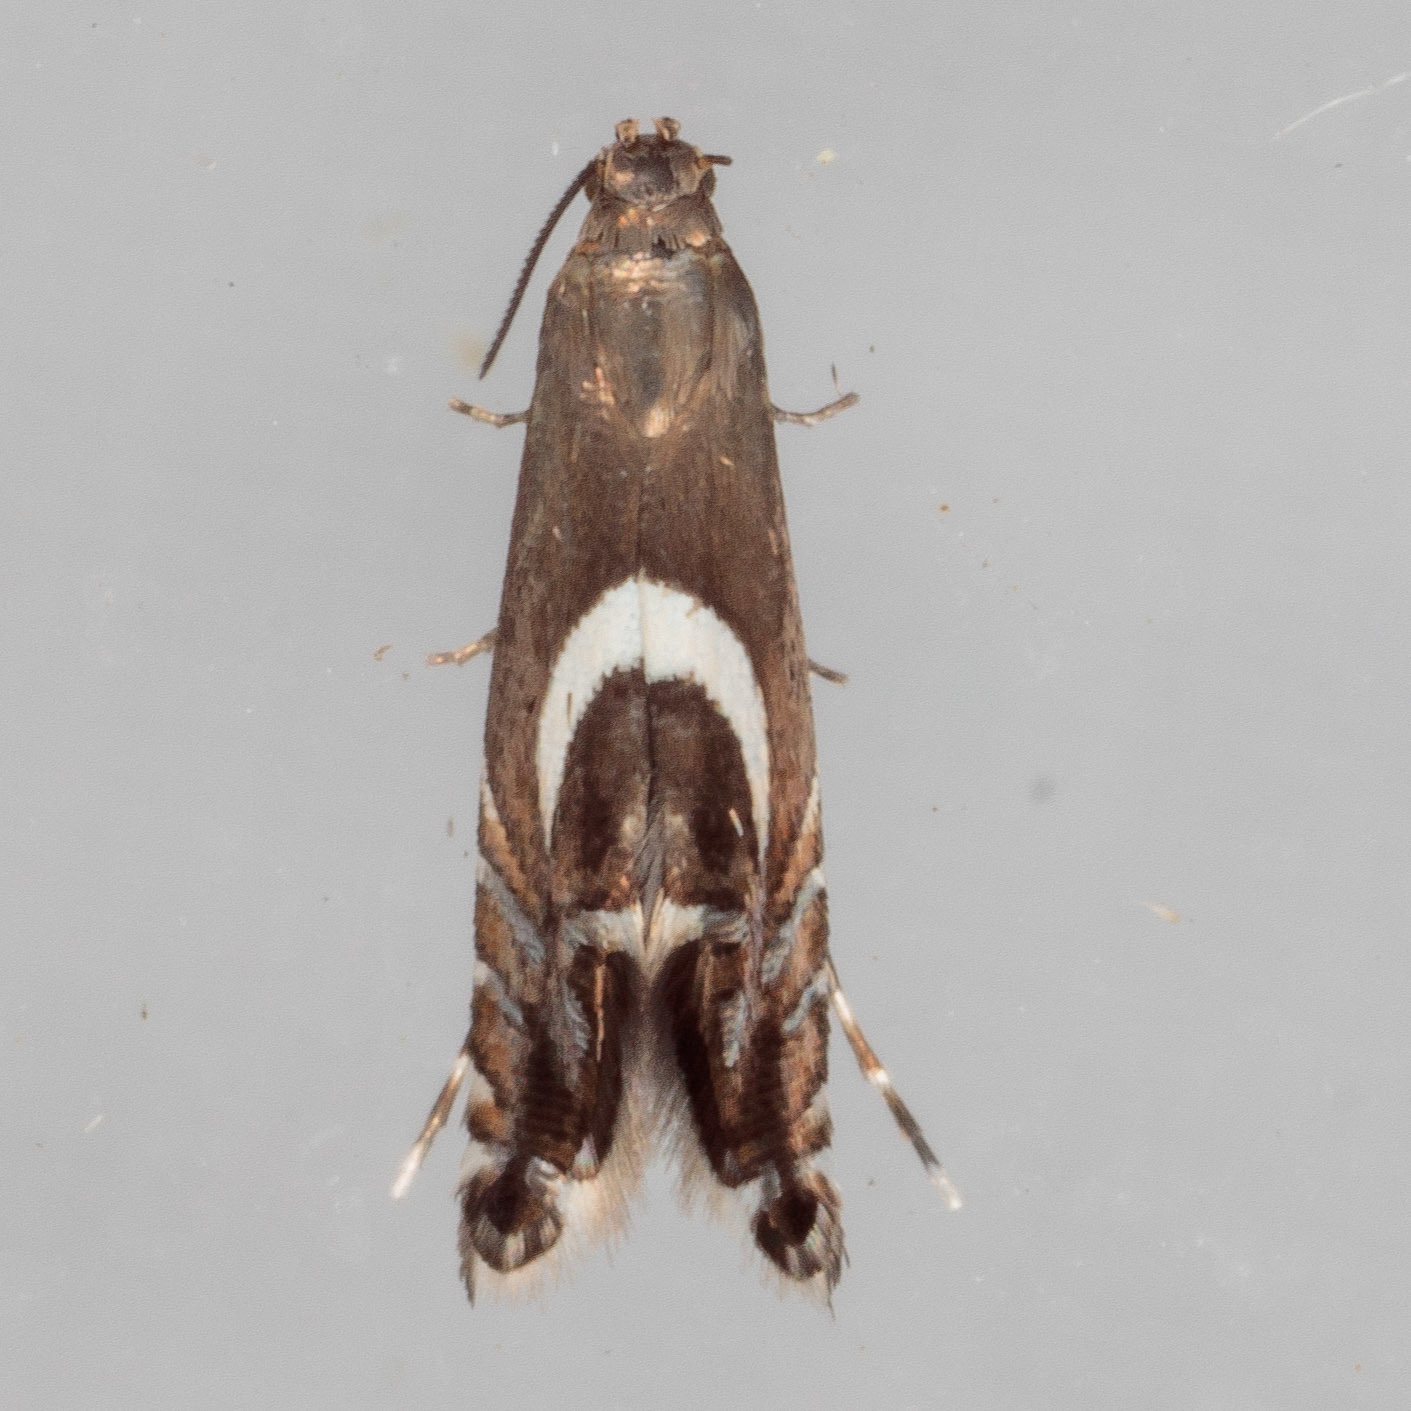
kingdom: Animalia
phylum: Arthropoda
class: Insecta
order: Lepidoptera
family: Glyphipterigidae
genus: Glyphipterix
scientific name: Glyphipterix Diploschizia impigritella
